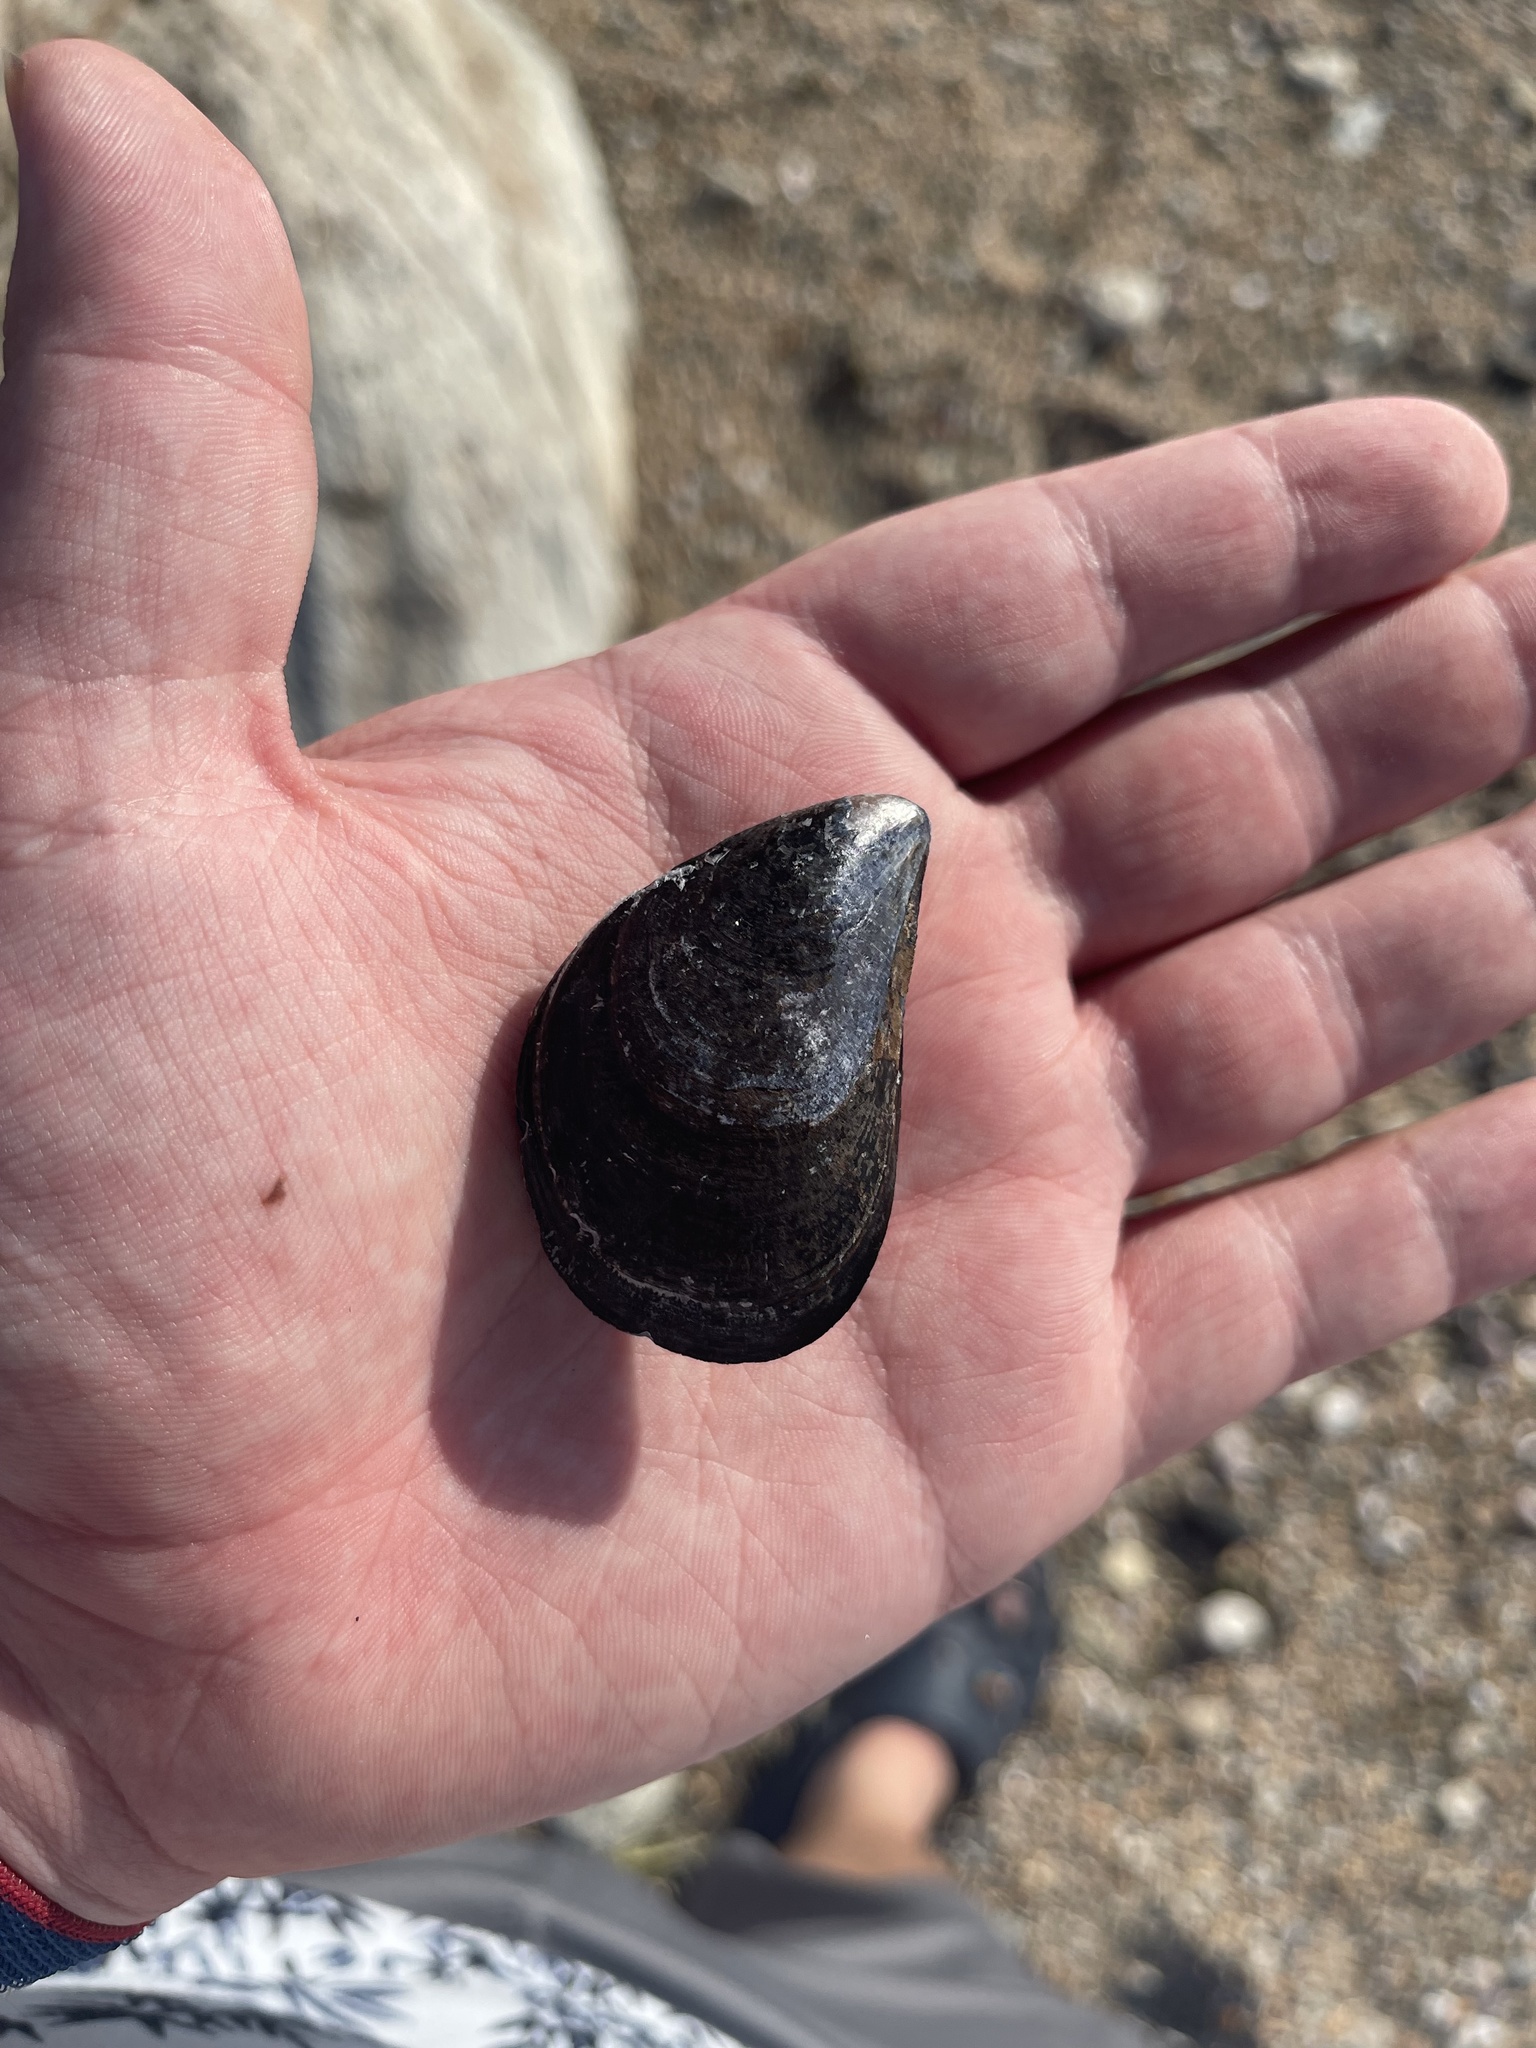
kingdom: Animalia
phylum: Mollusca
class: Bivalvia
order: Mytilida
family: Mytilidae
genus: Mytilus
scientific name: Mytilus edulis
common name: Blue mussel
